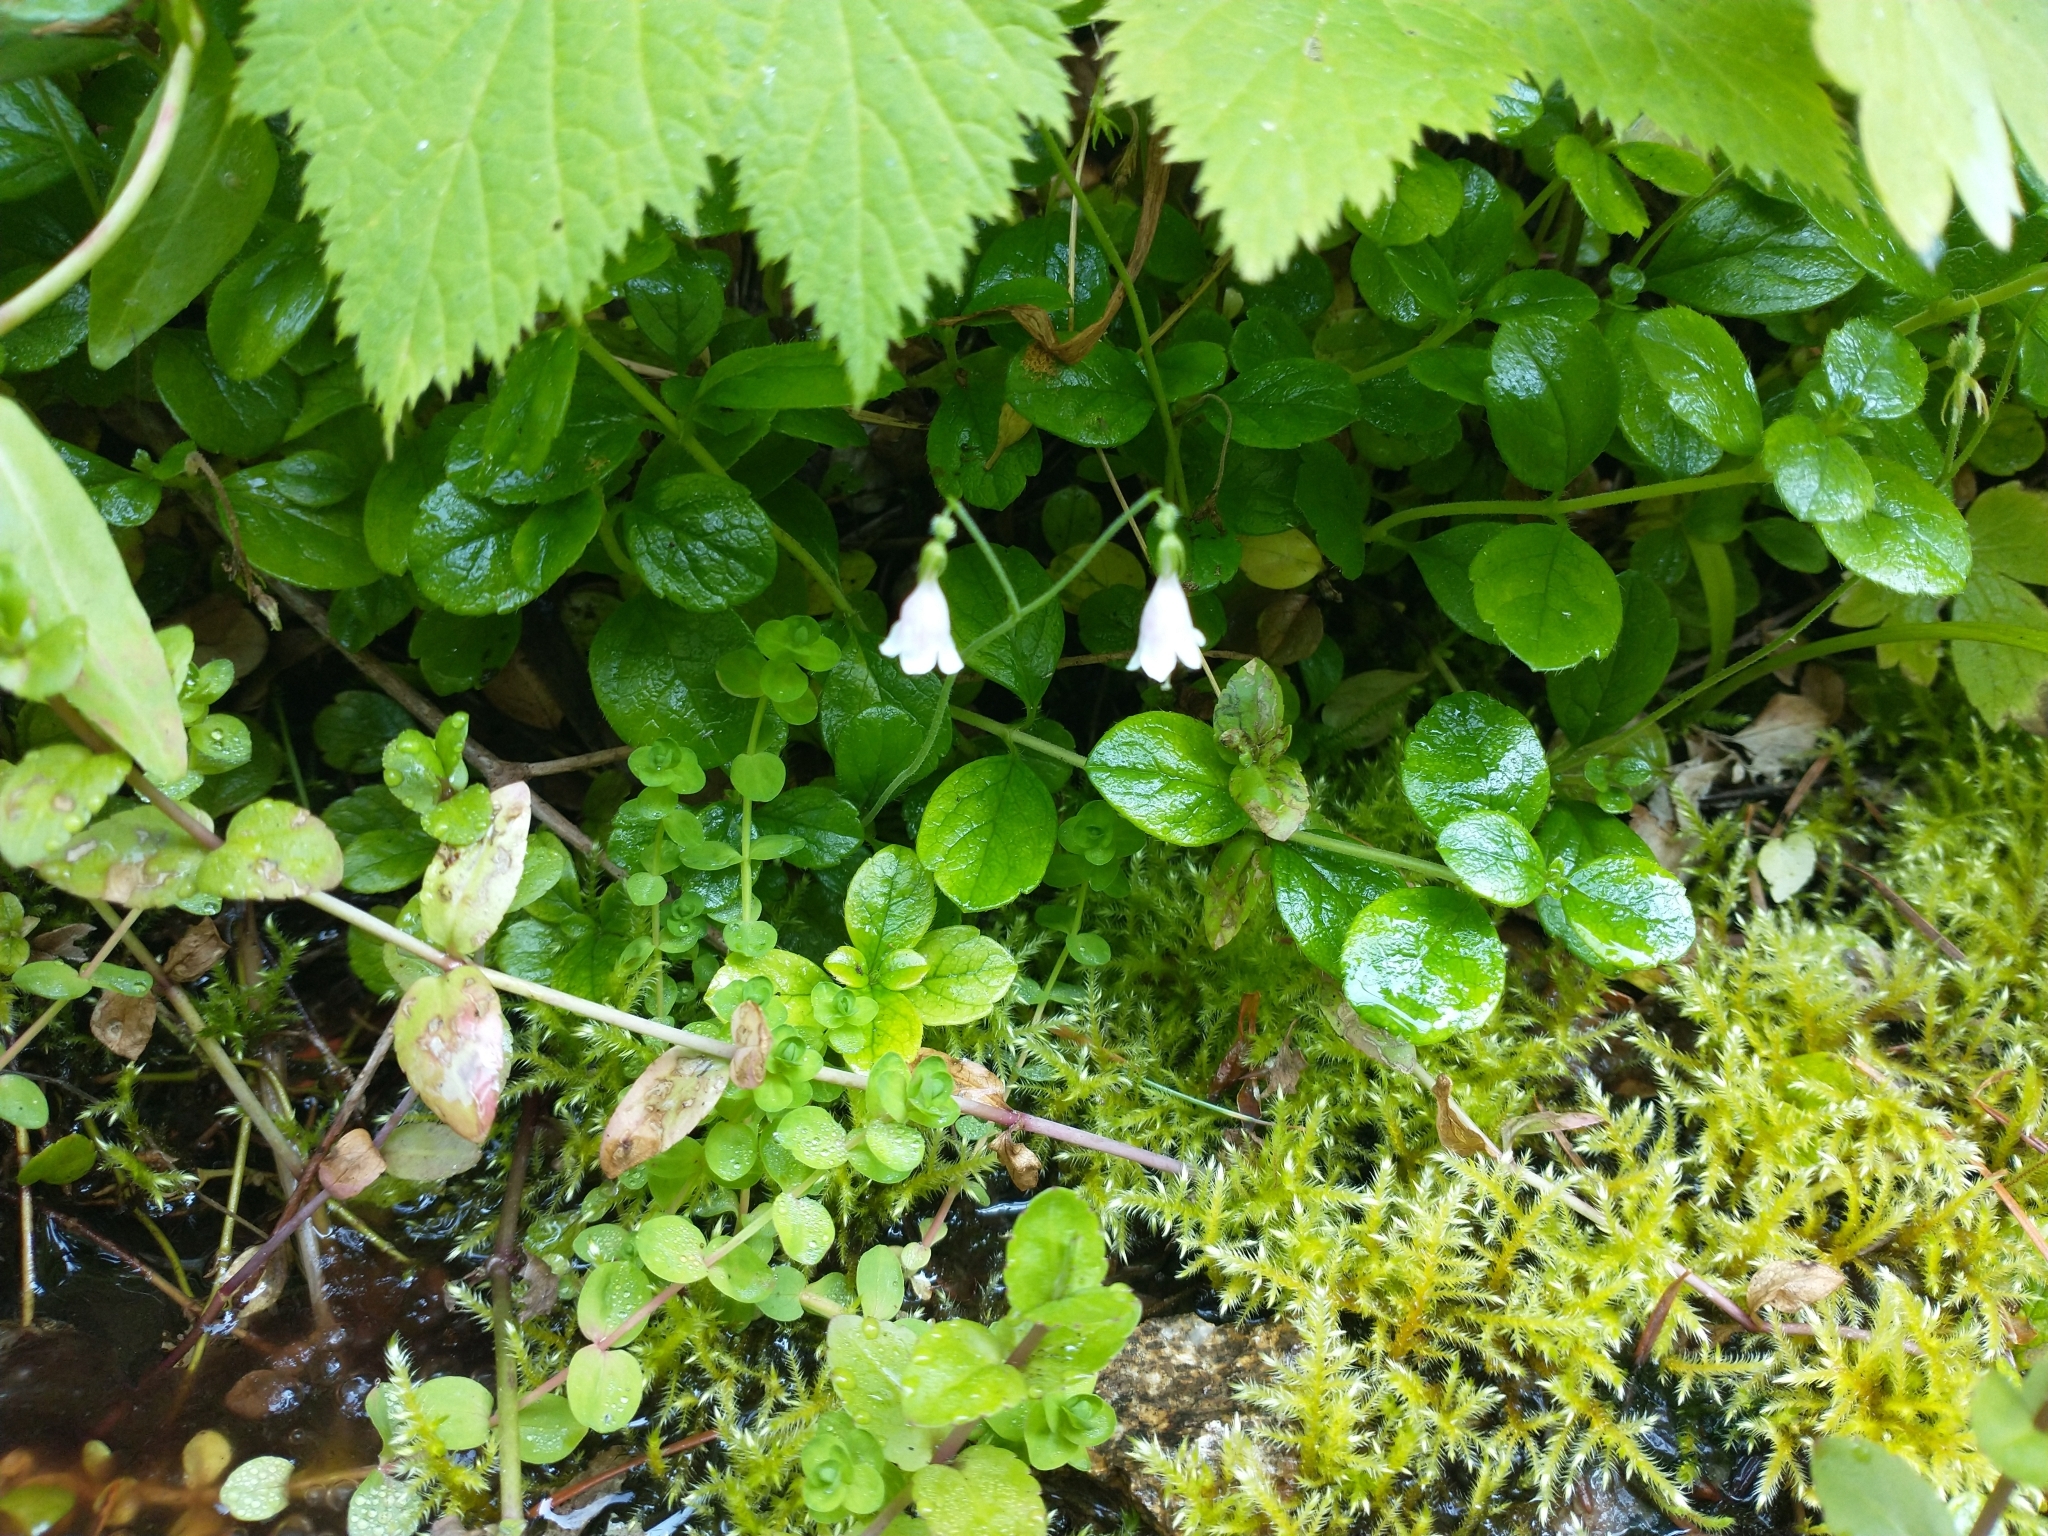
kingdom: Plantae
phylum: Tracheophyta
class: Magnoliopsida
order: Dipsacales
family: Caprifoliaceae
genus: Linnaea
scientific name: Linnaea borealis
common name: Twinflower
